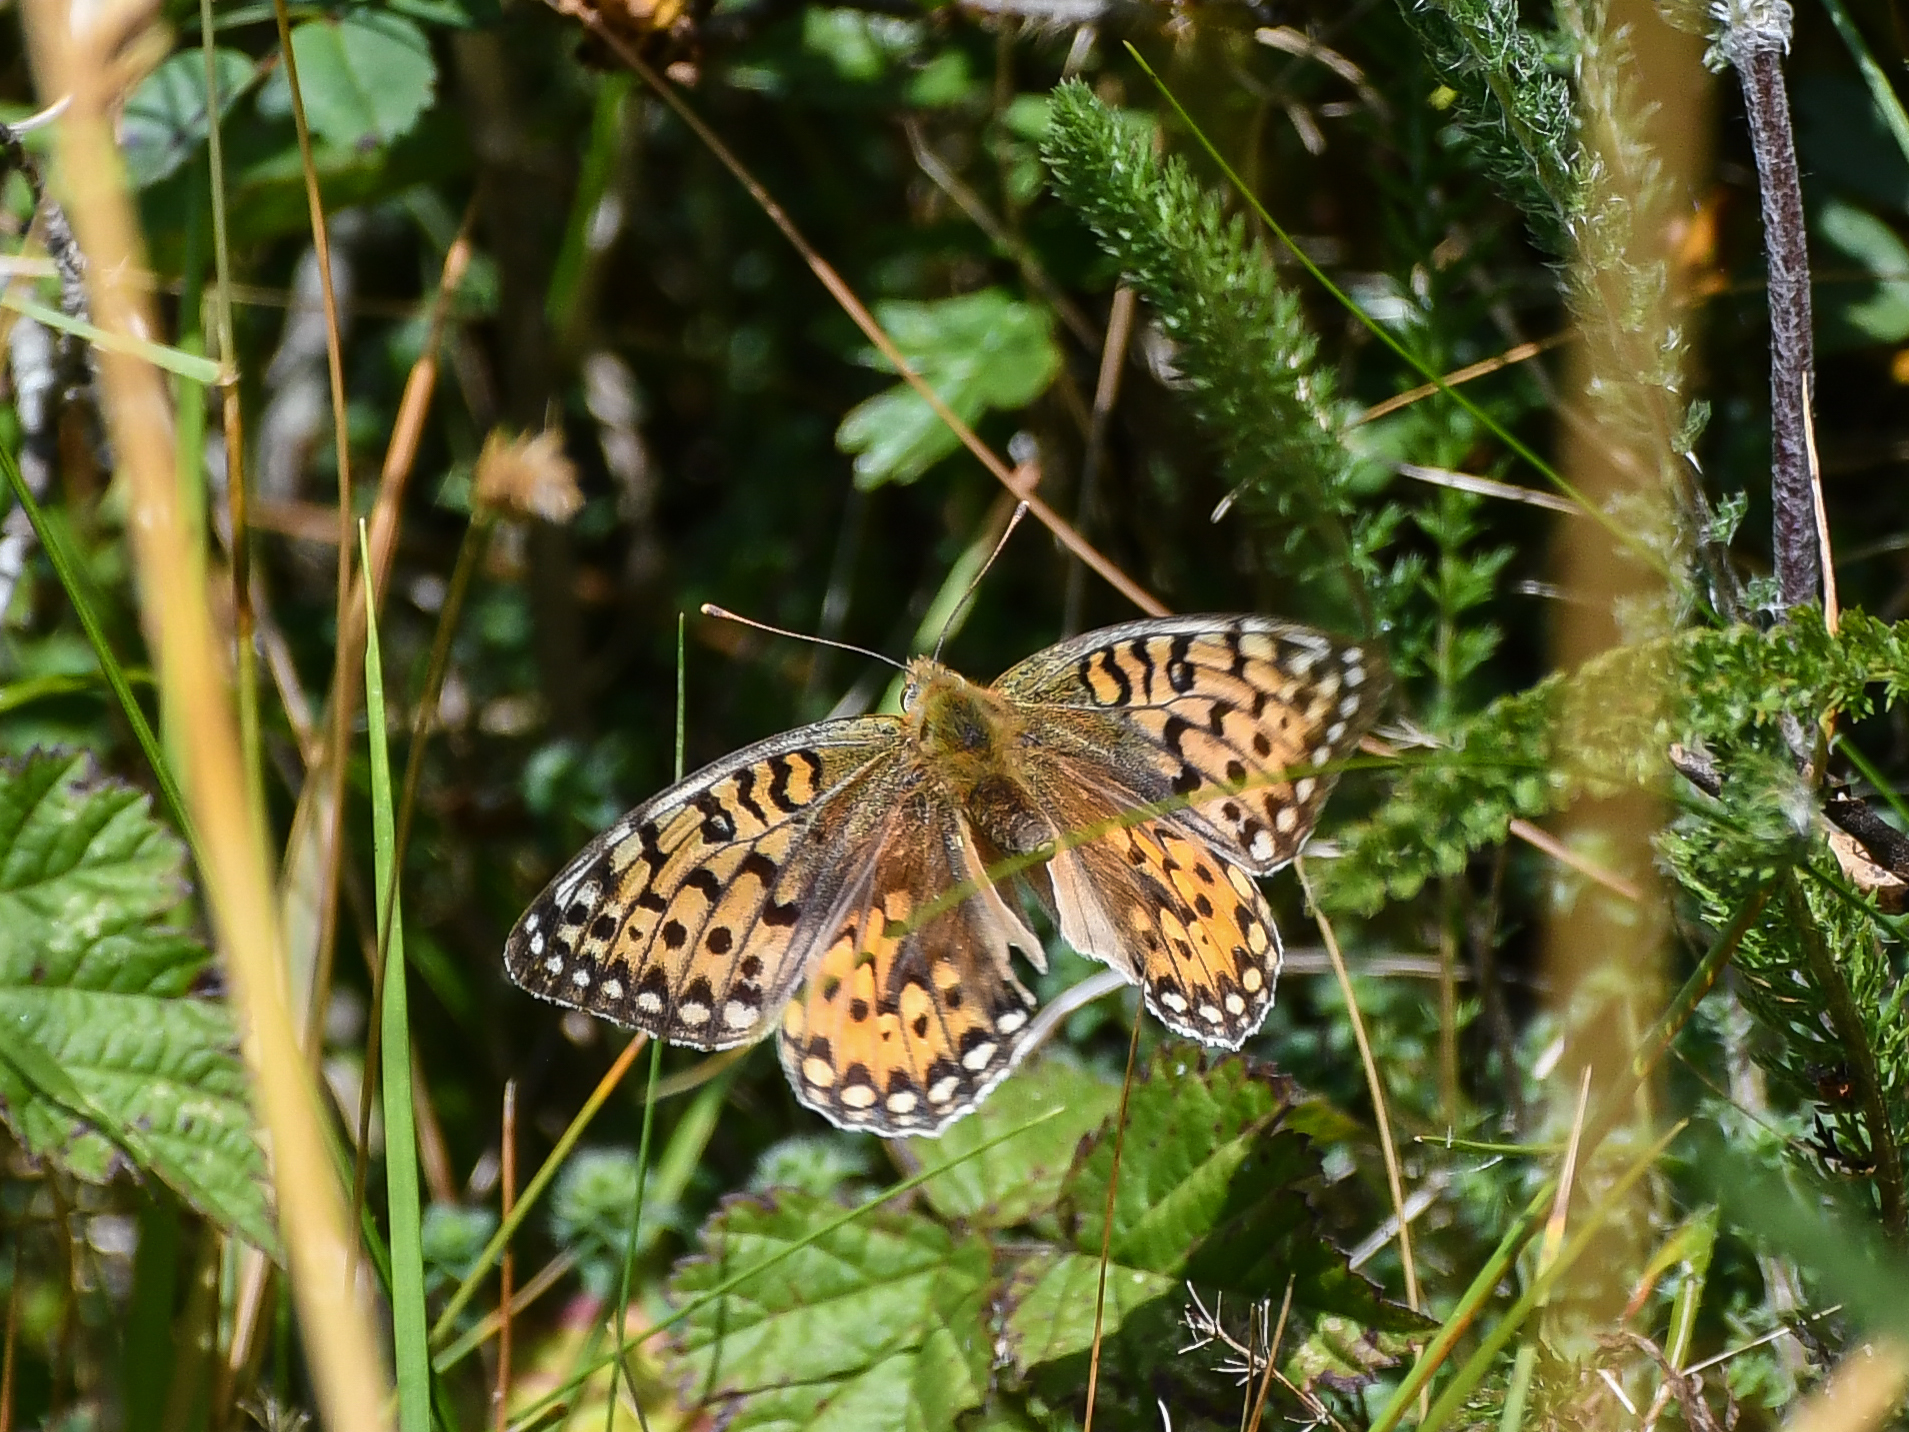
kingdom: Animalia
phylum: Arthropoda
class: Insecta
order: Lepidoptera
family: Nymphalidae
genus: Speyeria
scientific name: Speyeria aglaja
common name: Dark green fritillary
